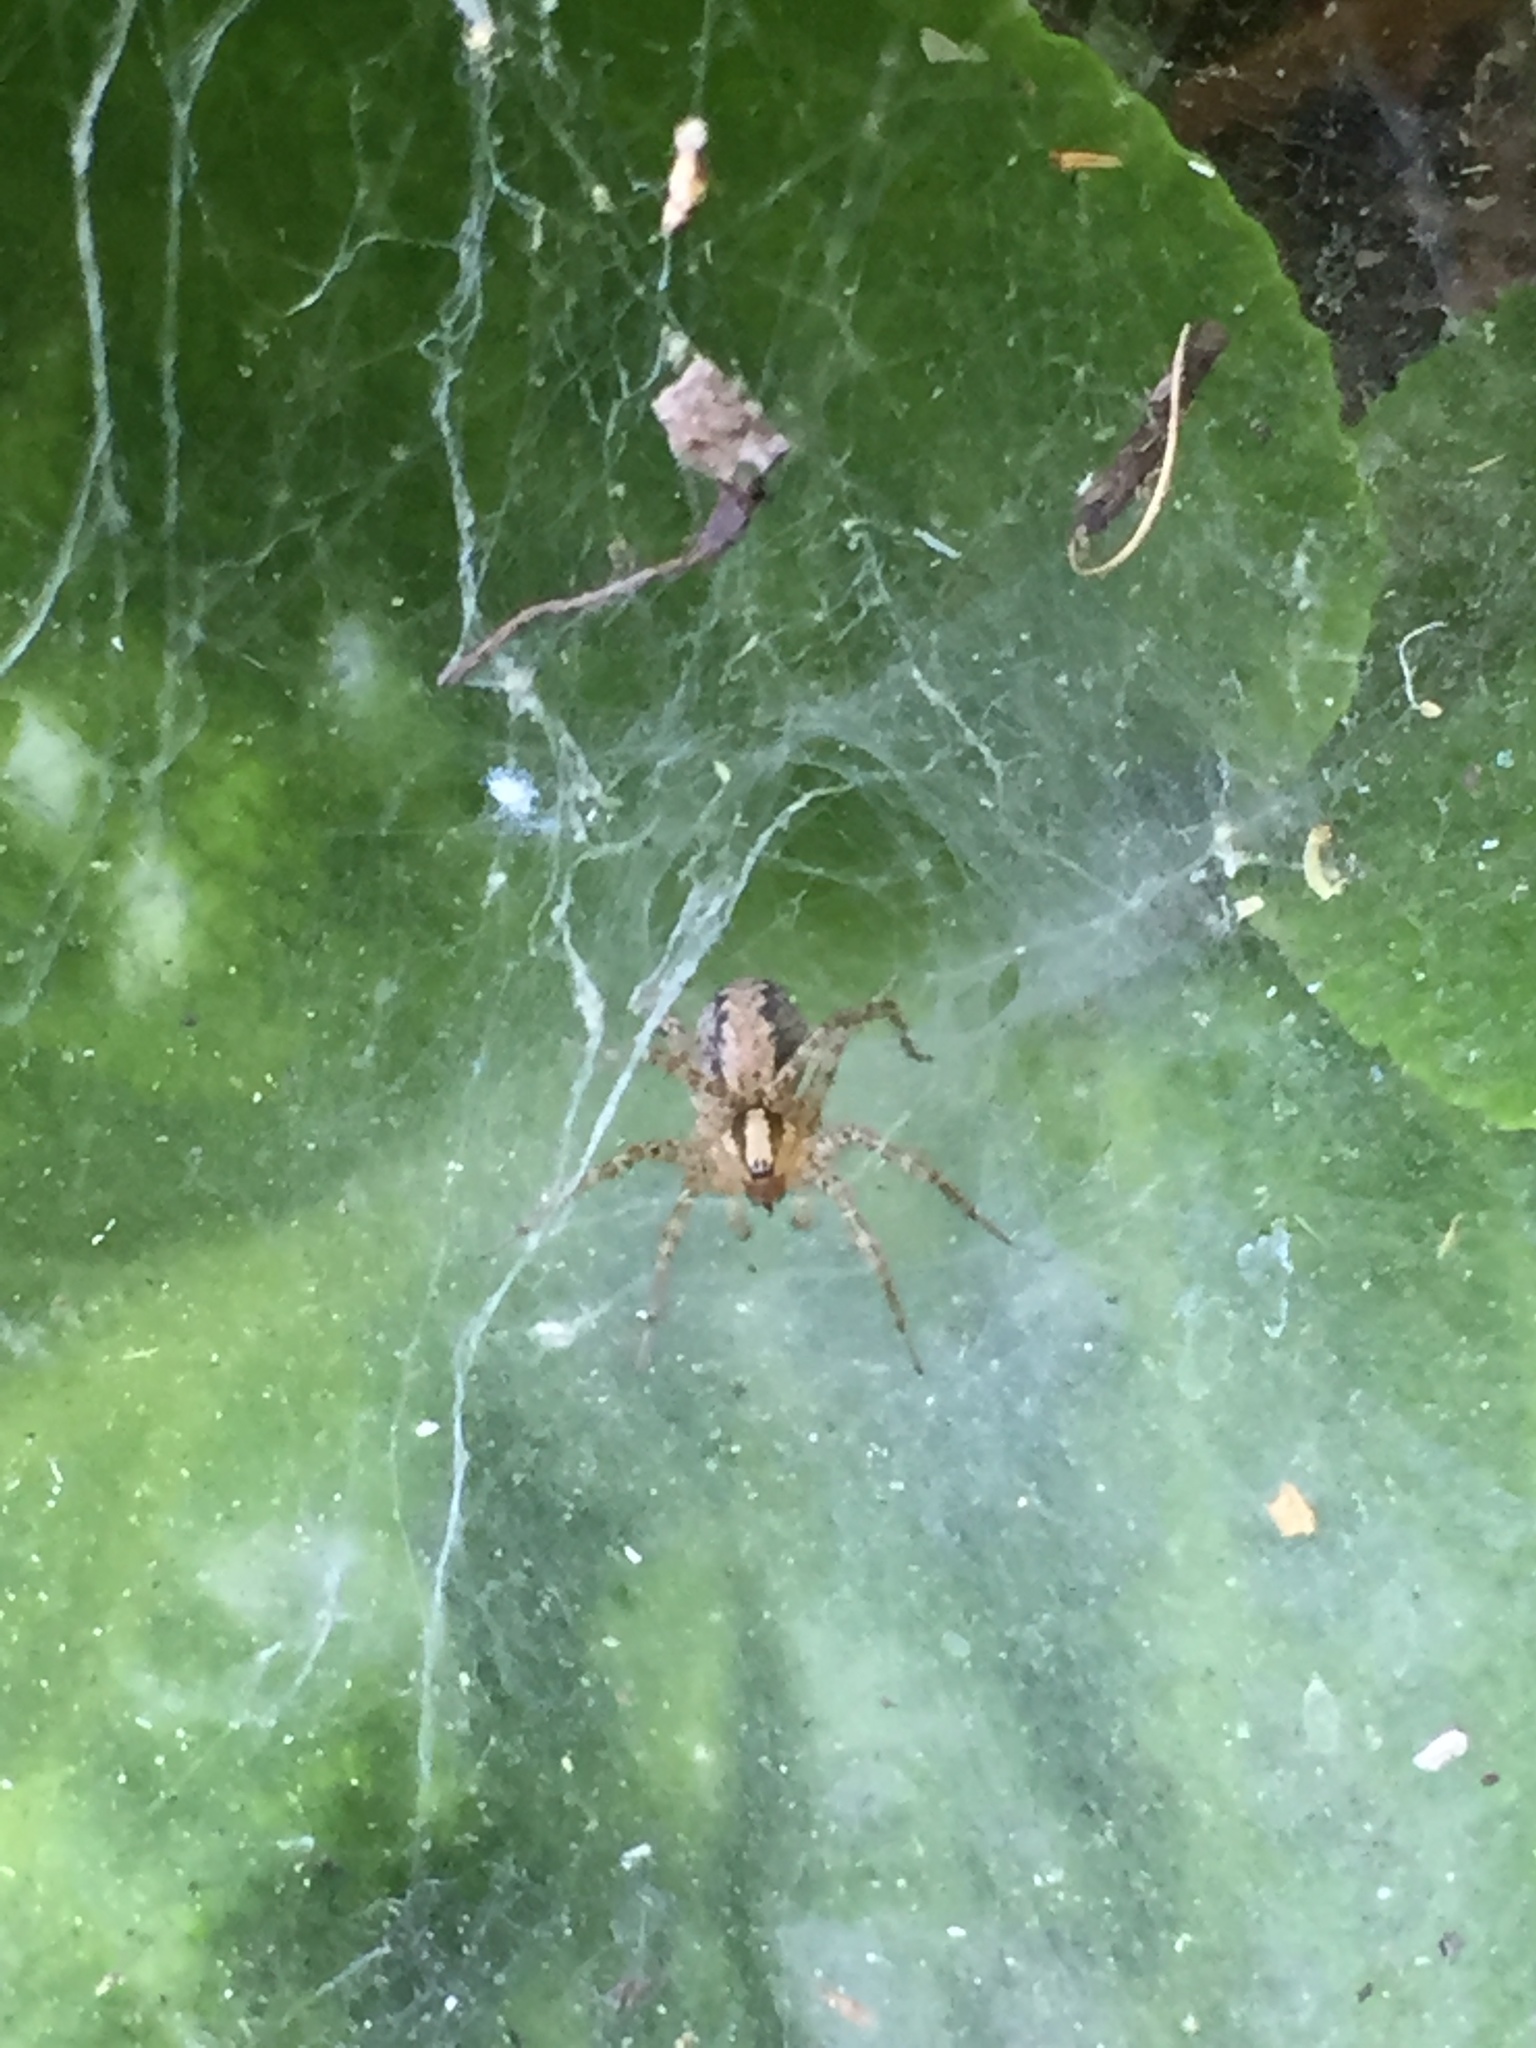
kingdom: Animalia
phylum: Arthropoda
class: Arachnida
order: Araneae
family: Agelenidae
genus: Agelenopsis
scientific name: Agelenopsis
